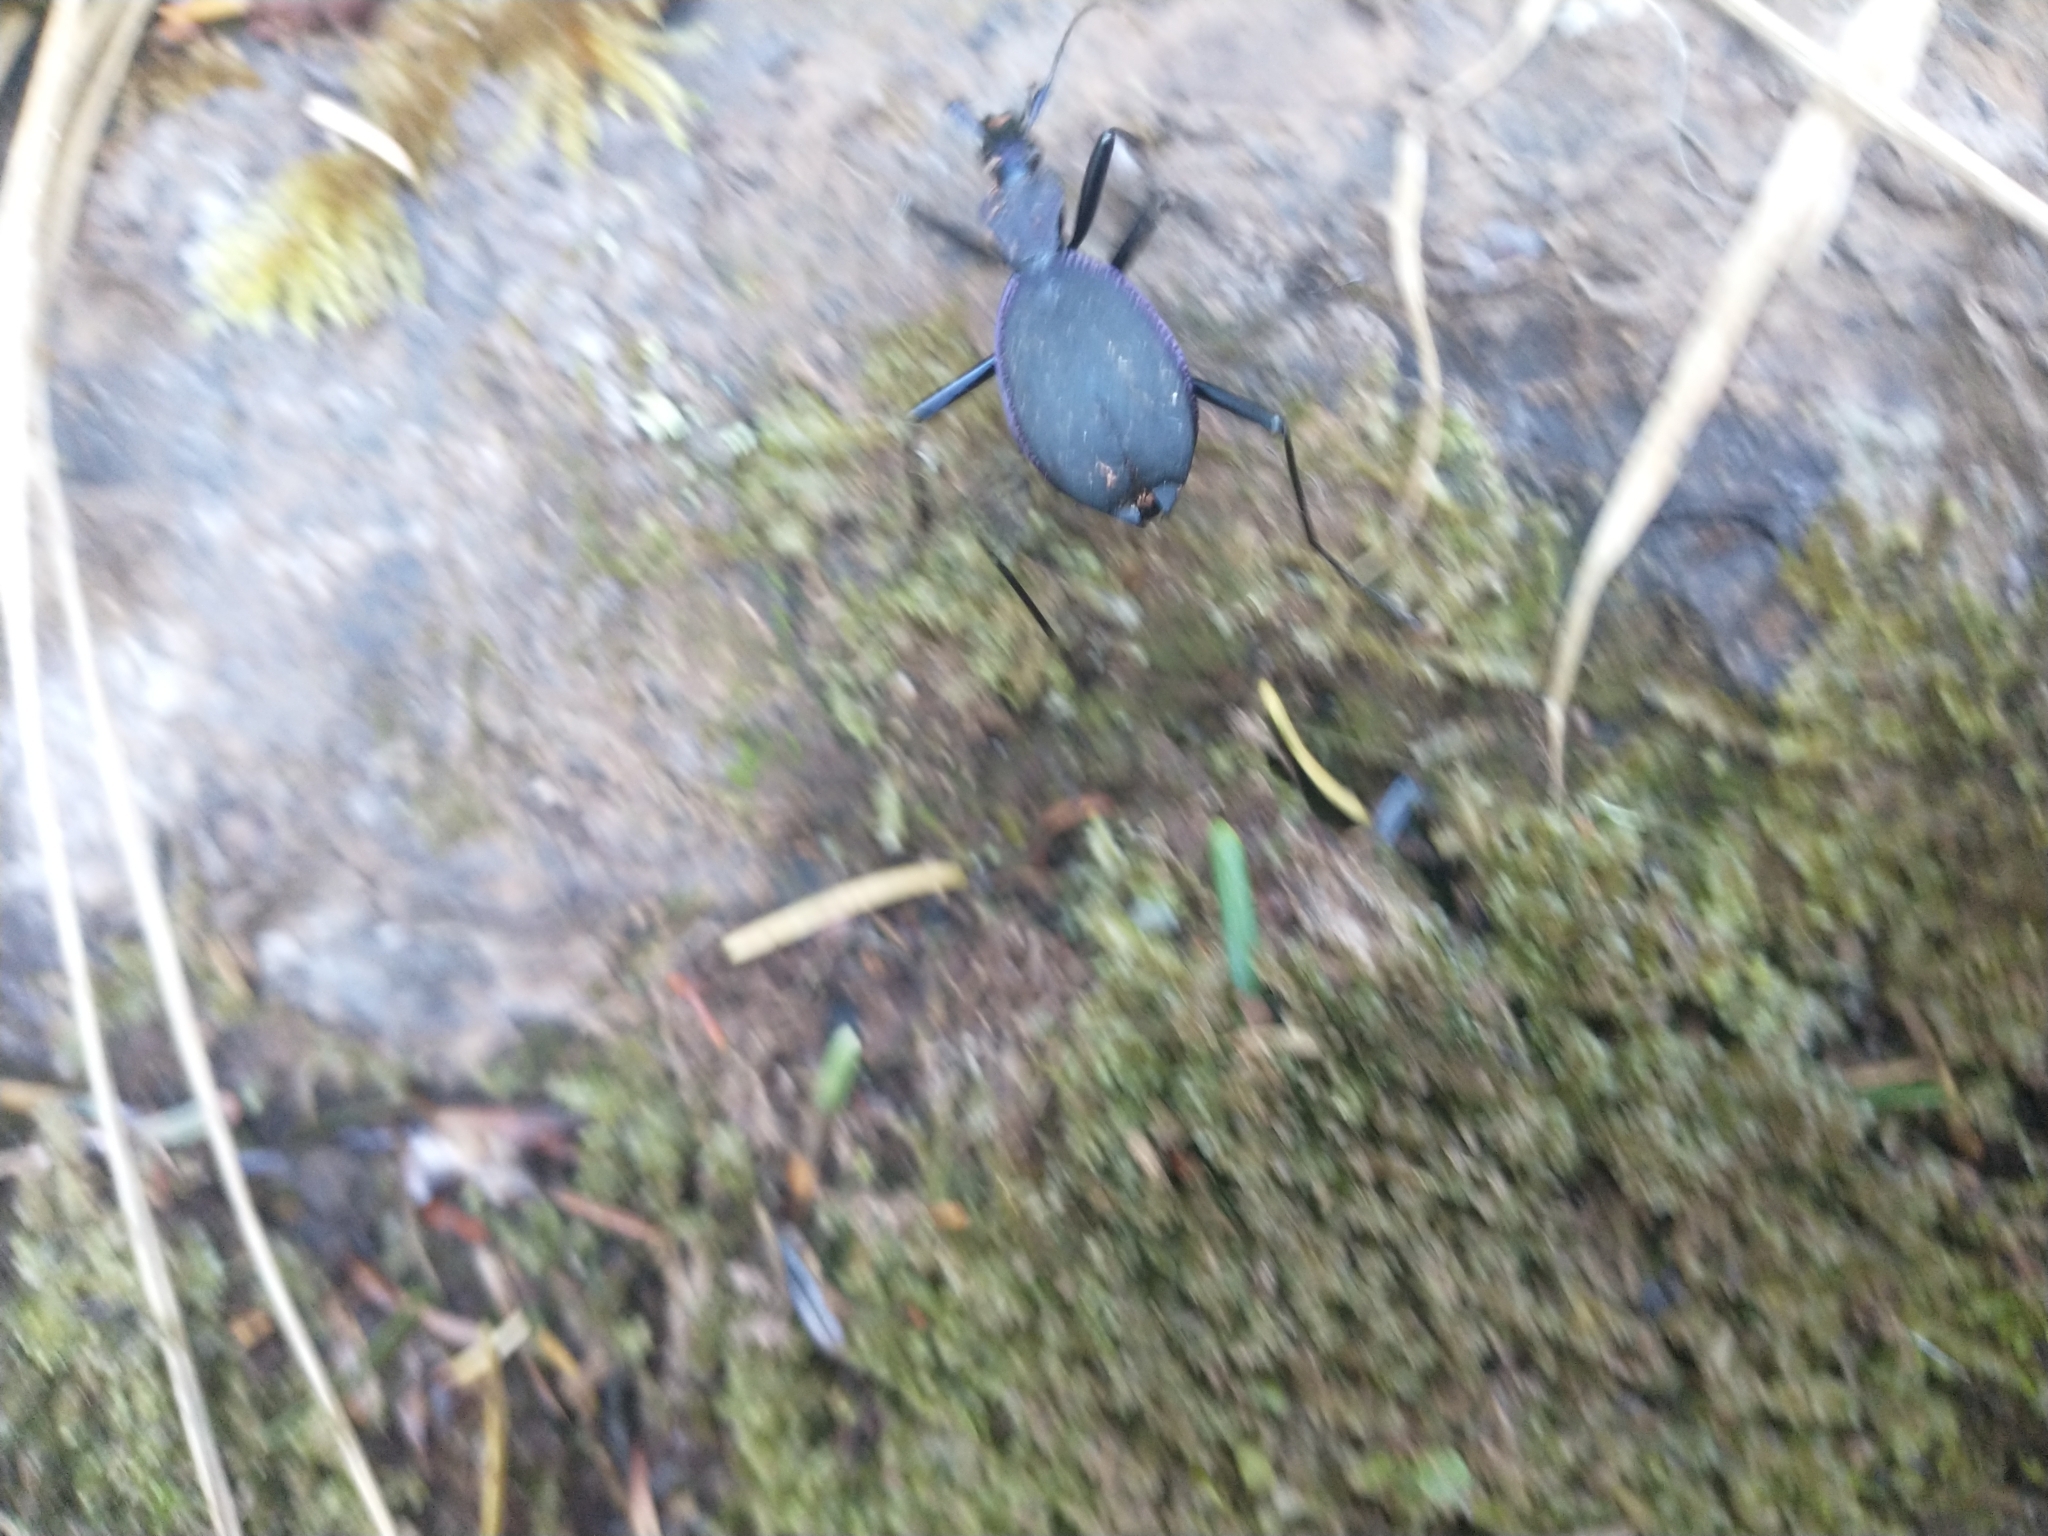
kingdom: Animalia
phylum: Arthropoda
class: Insecta
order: Coleoptera
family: Carabidae
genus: Scaphinotus
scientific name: Scaphinotus velutinus
